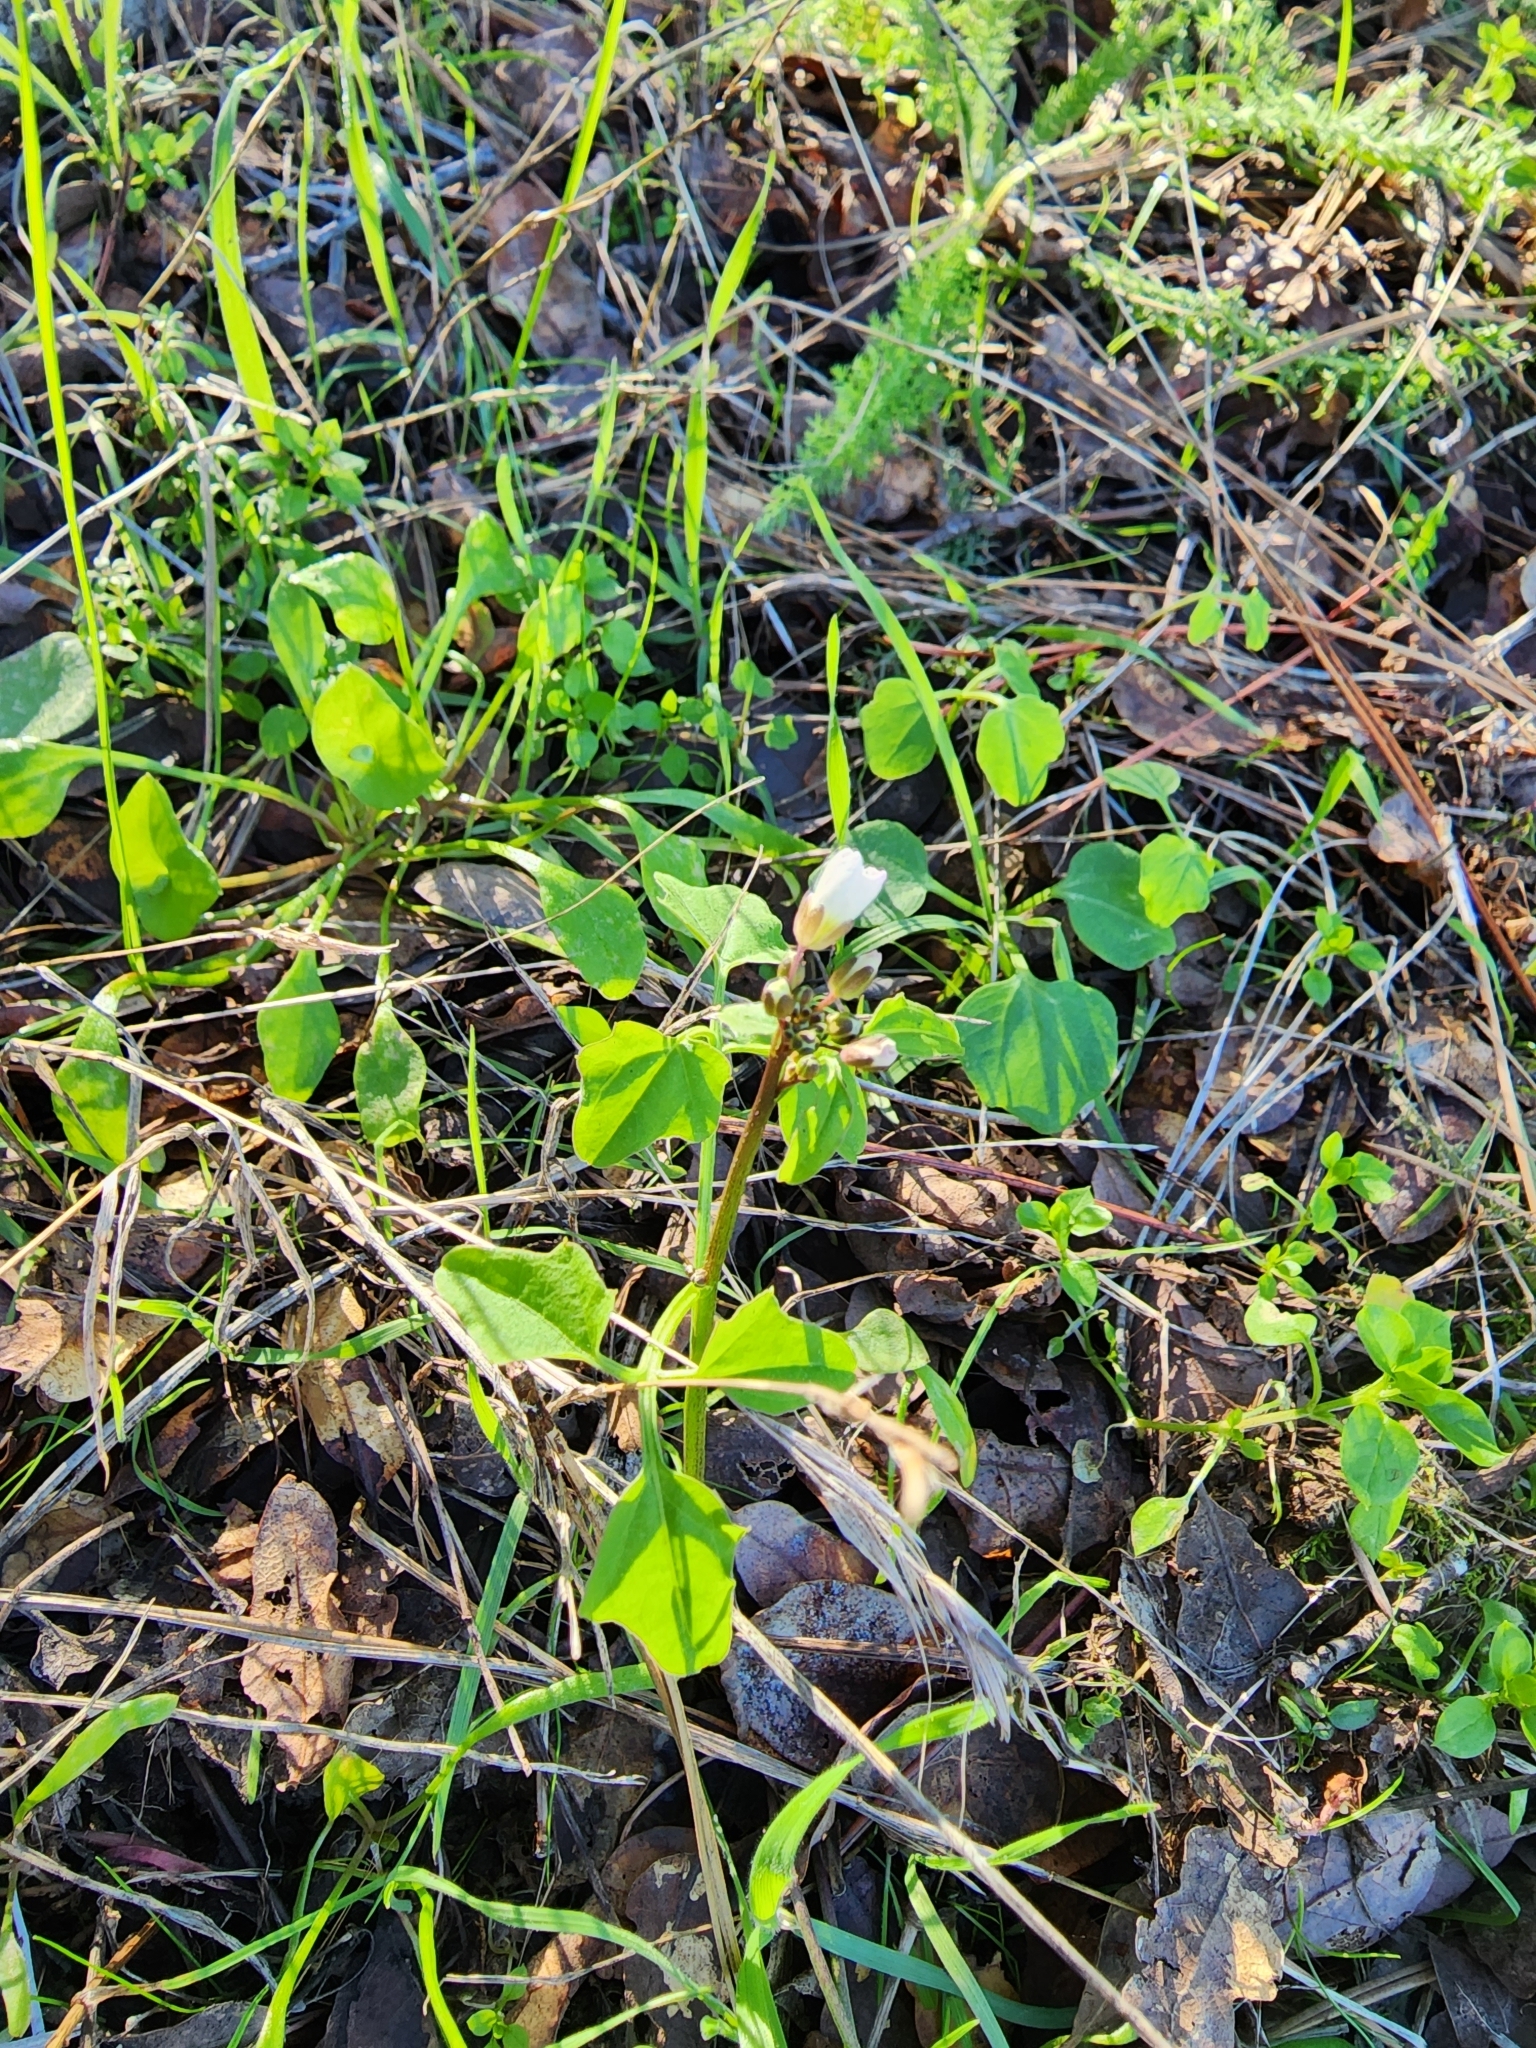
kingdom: Plantae
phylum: Tracheophyta
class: Magnoliopsida
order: Brassicales
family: Brassicaceae
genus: Cardamine
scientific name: Cardamine californica
